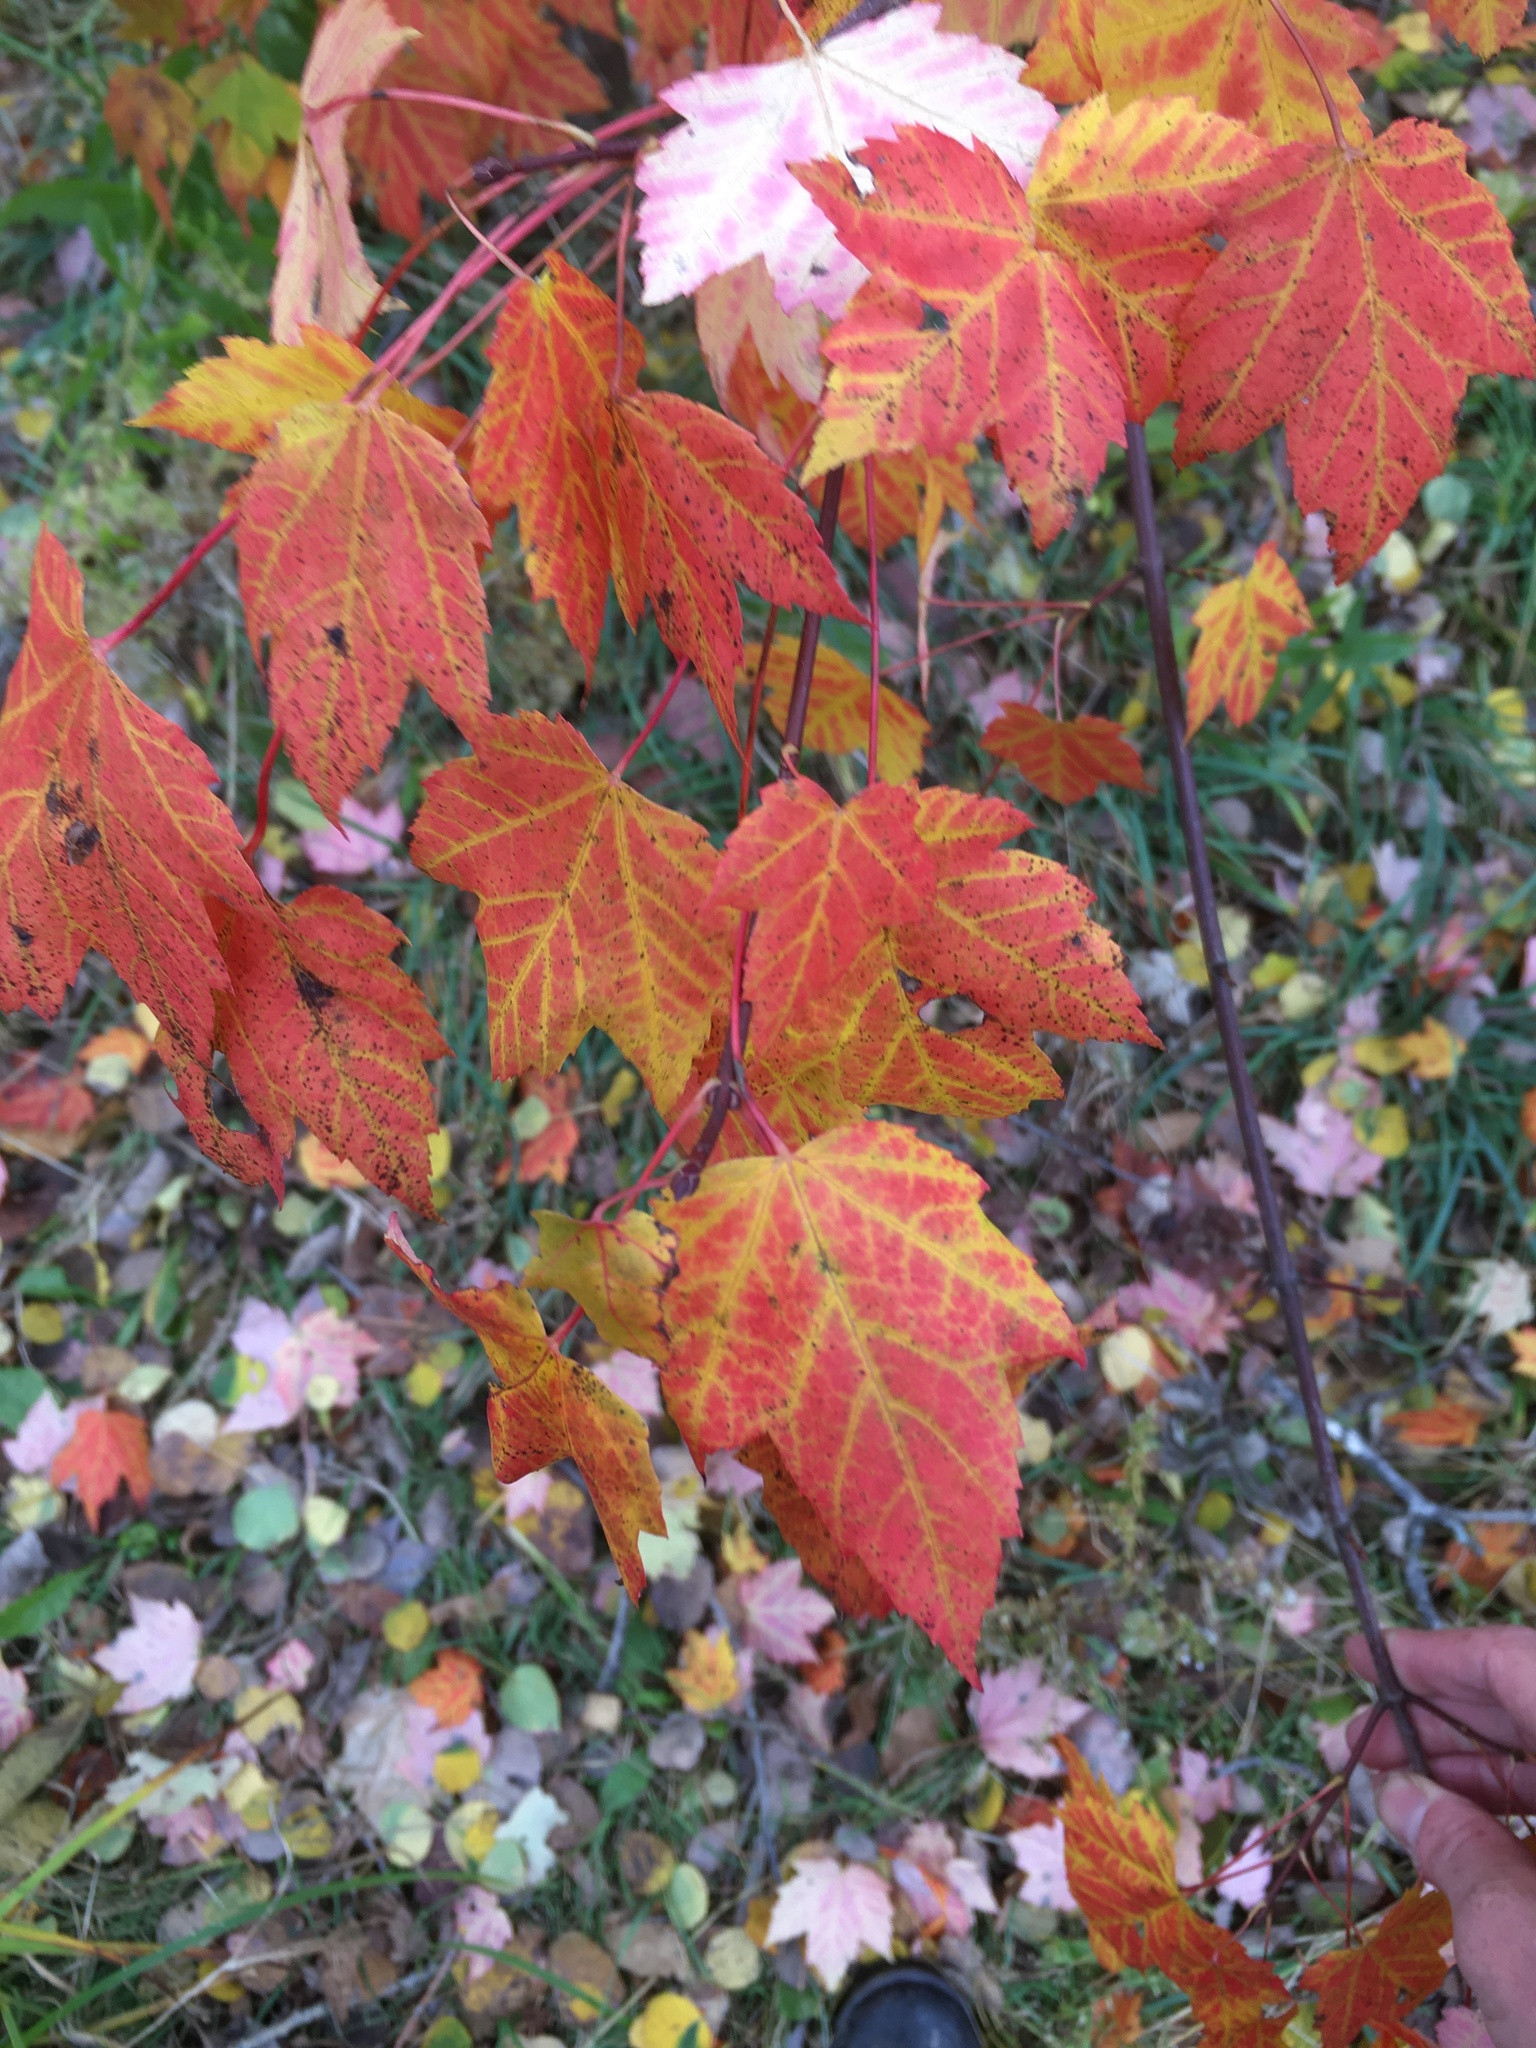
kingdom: Plantae
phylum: Tracheophyta
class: Magnoliopsida
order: Sapindales
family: Sapindaceae
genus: Acer
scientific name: Acer rubrum
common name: Red maple
